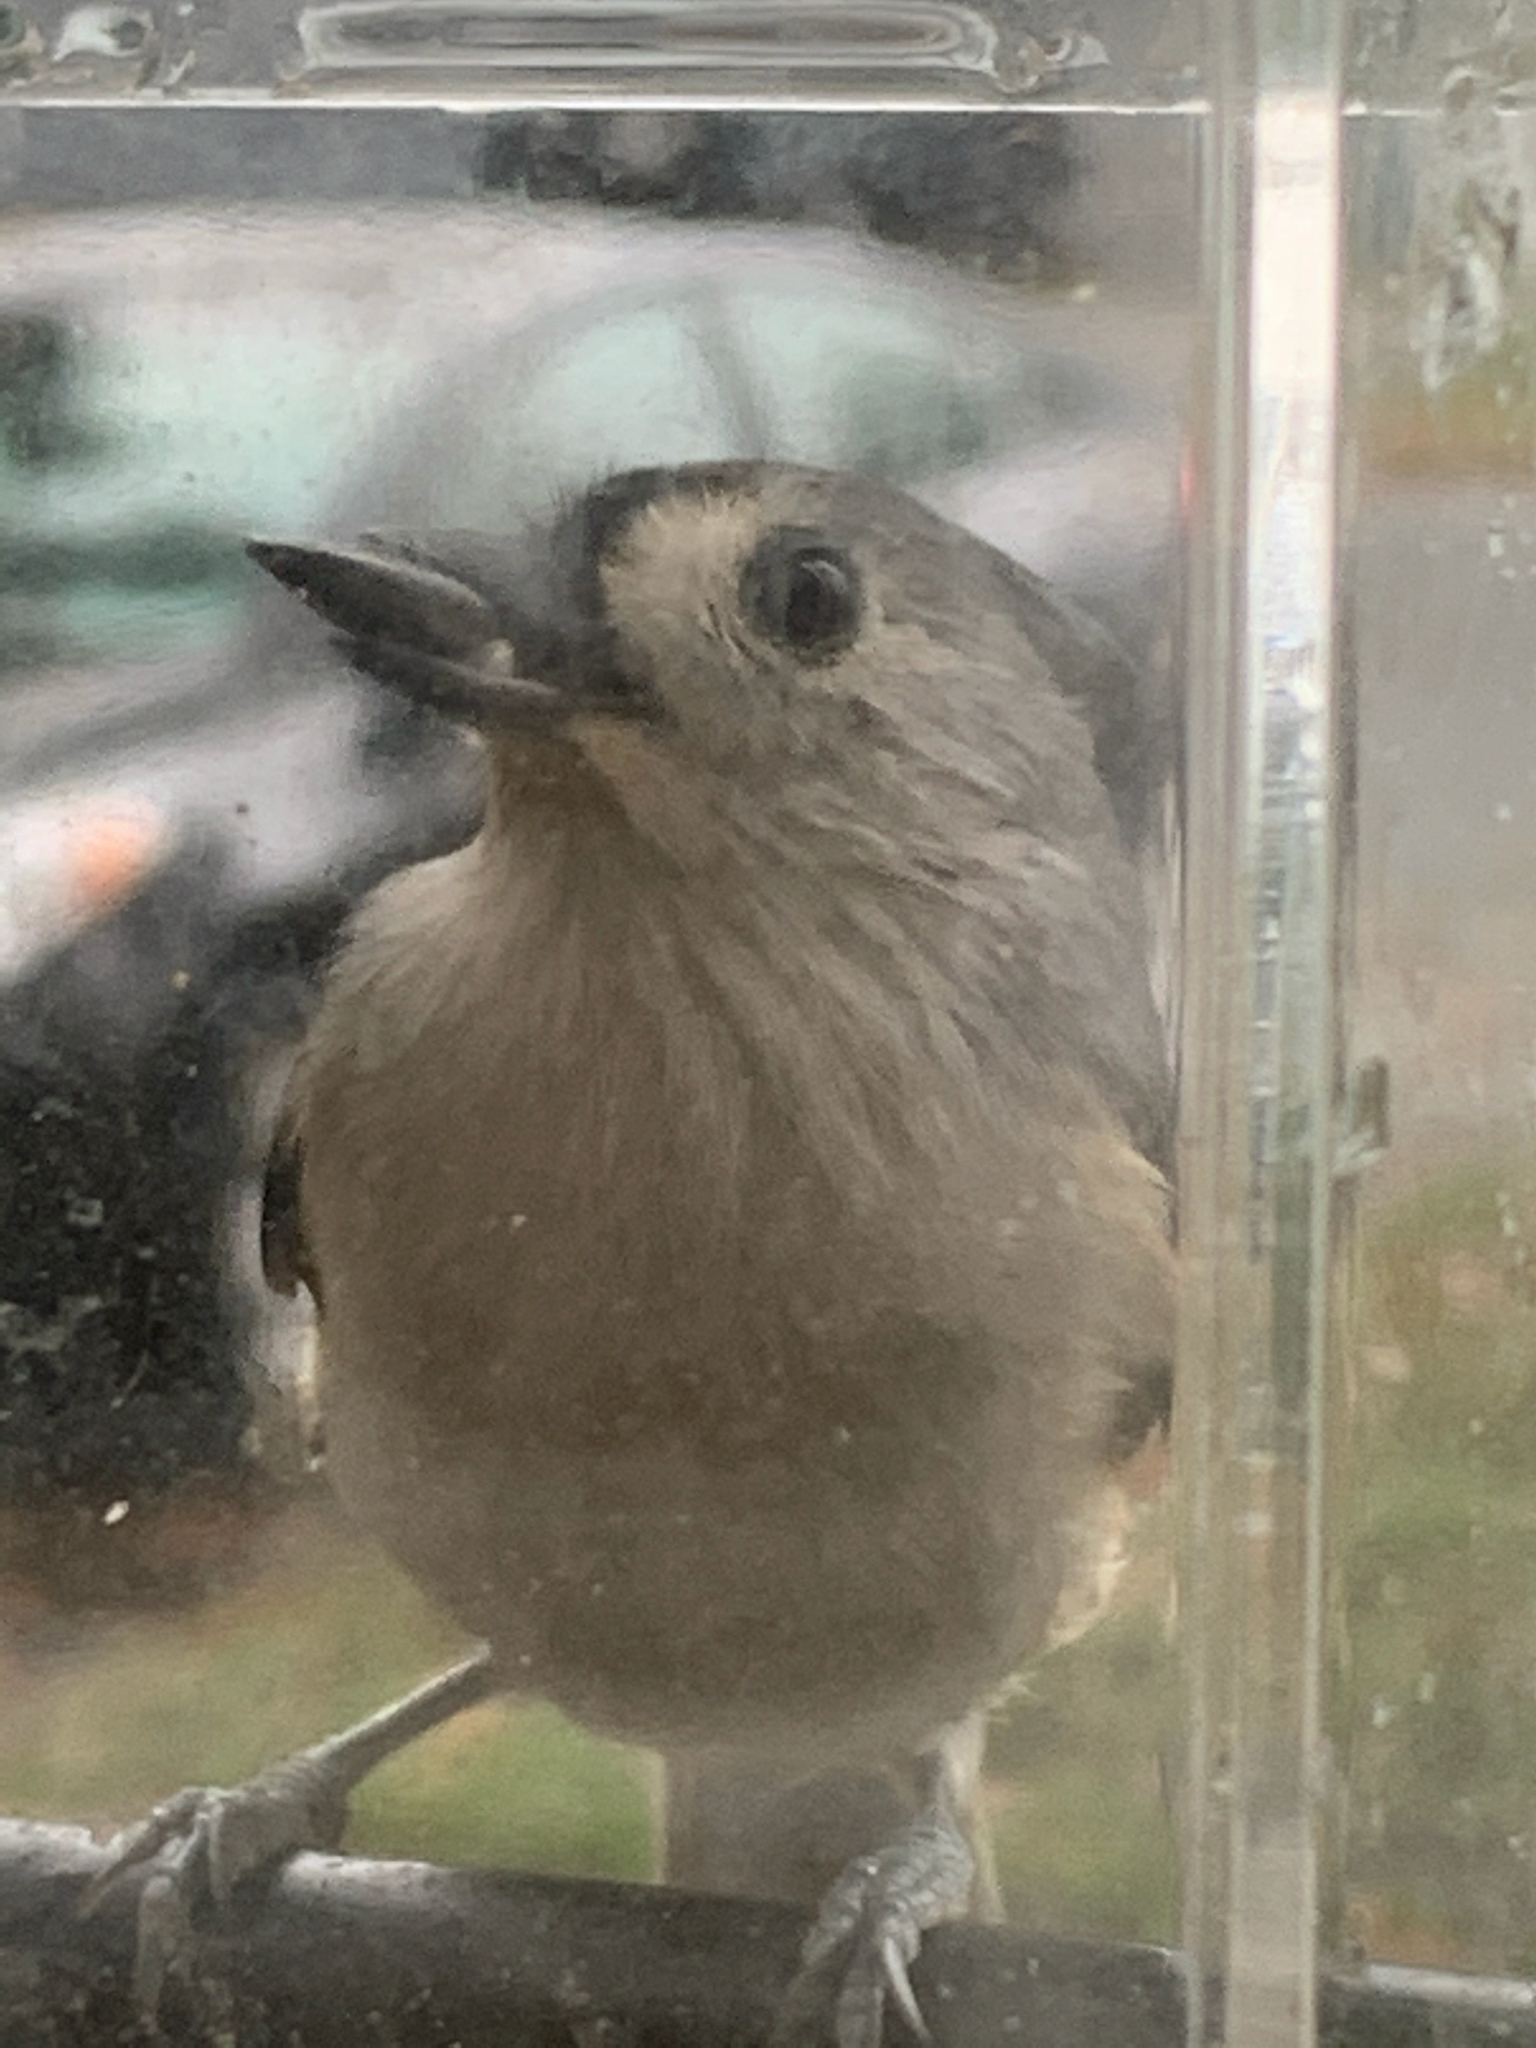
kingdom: Animalia
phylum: Chordata
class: Aves
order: Passeriformes
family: Paridae
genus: Baeolophus
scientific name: Baeolophus bicolor
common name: Tufted titmouse
